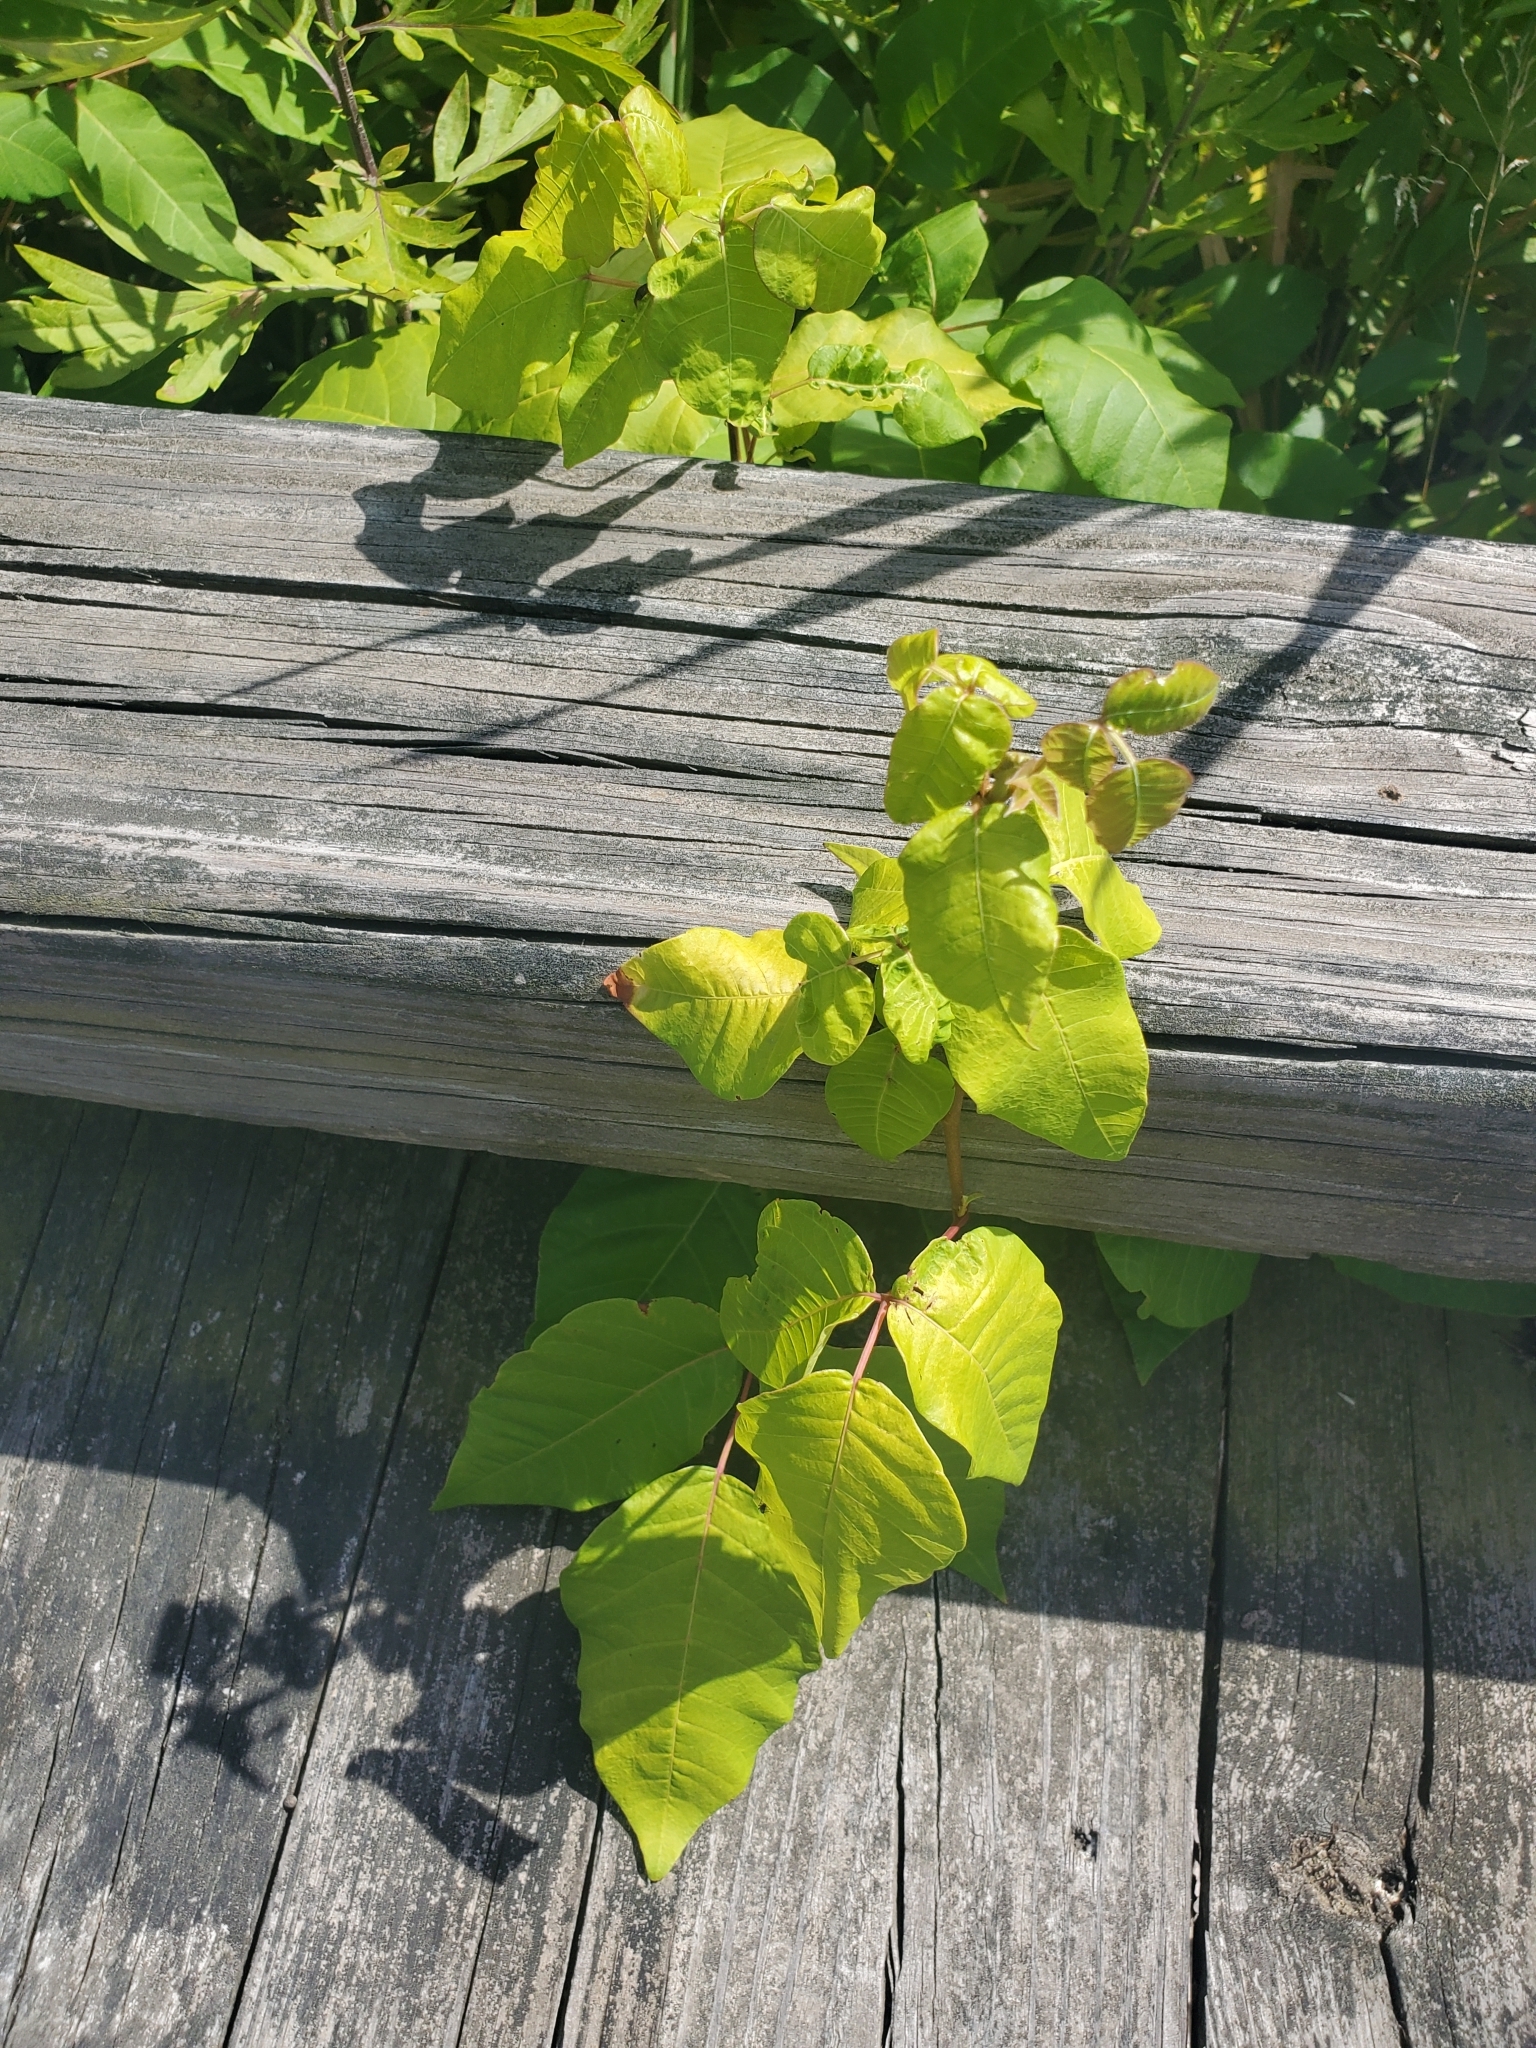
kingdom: Plantae
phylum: Tracheophyta
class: Magnoliopsida
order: Sapindales
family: Anacardiaceae
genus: Toxicodendron
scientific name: Toxicodendron radicans
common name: Poison ivy
